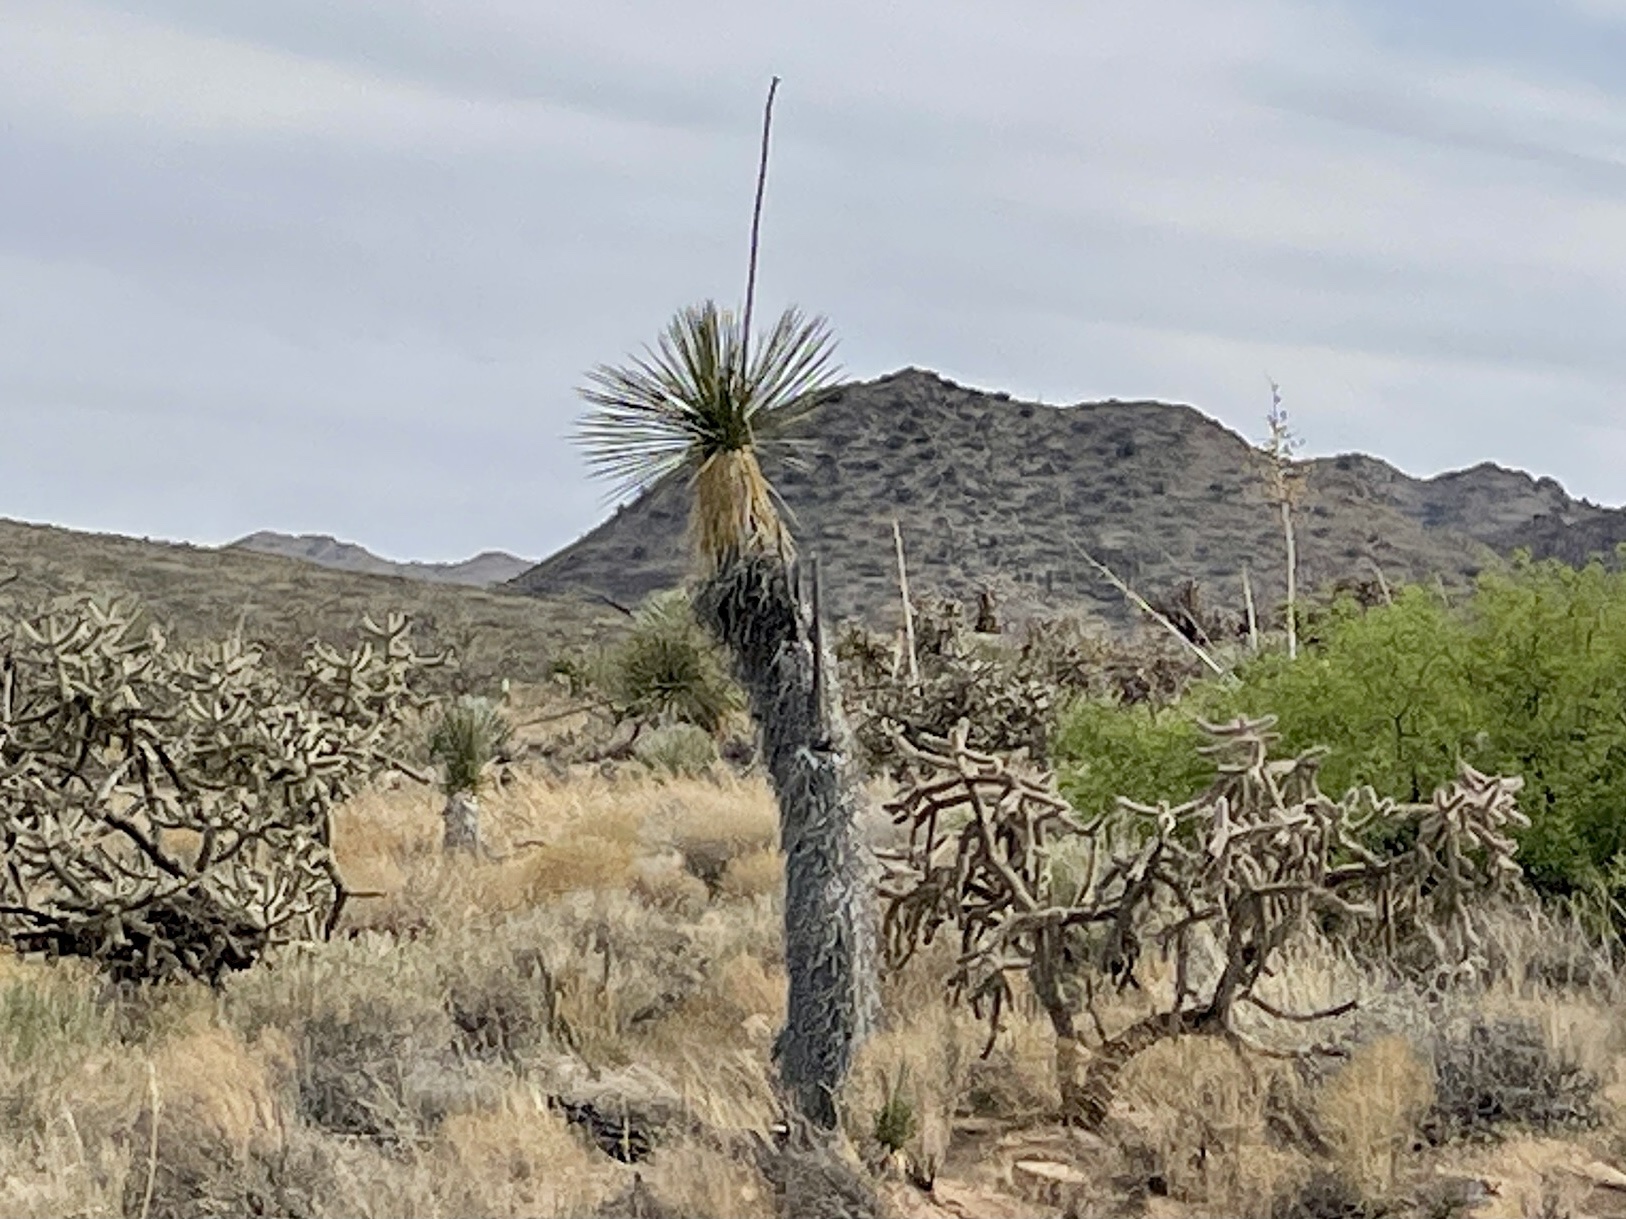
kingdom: Plantae
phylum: Tracheophyta
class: Liliopsida
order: Asparagales
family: Asparagaceae
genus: Yucca
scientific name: Yucca elata
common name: Palmella
